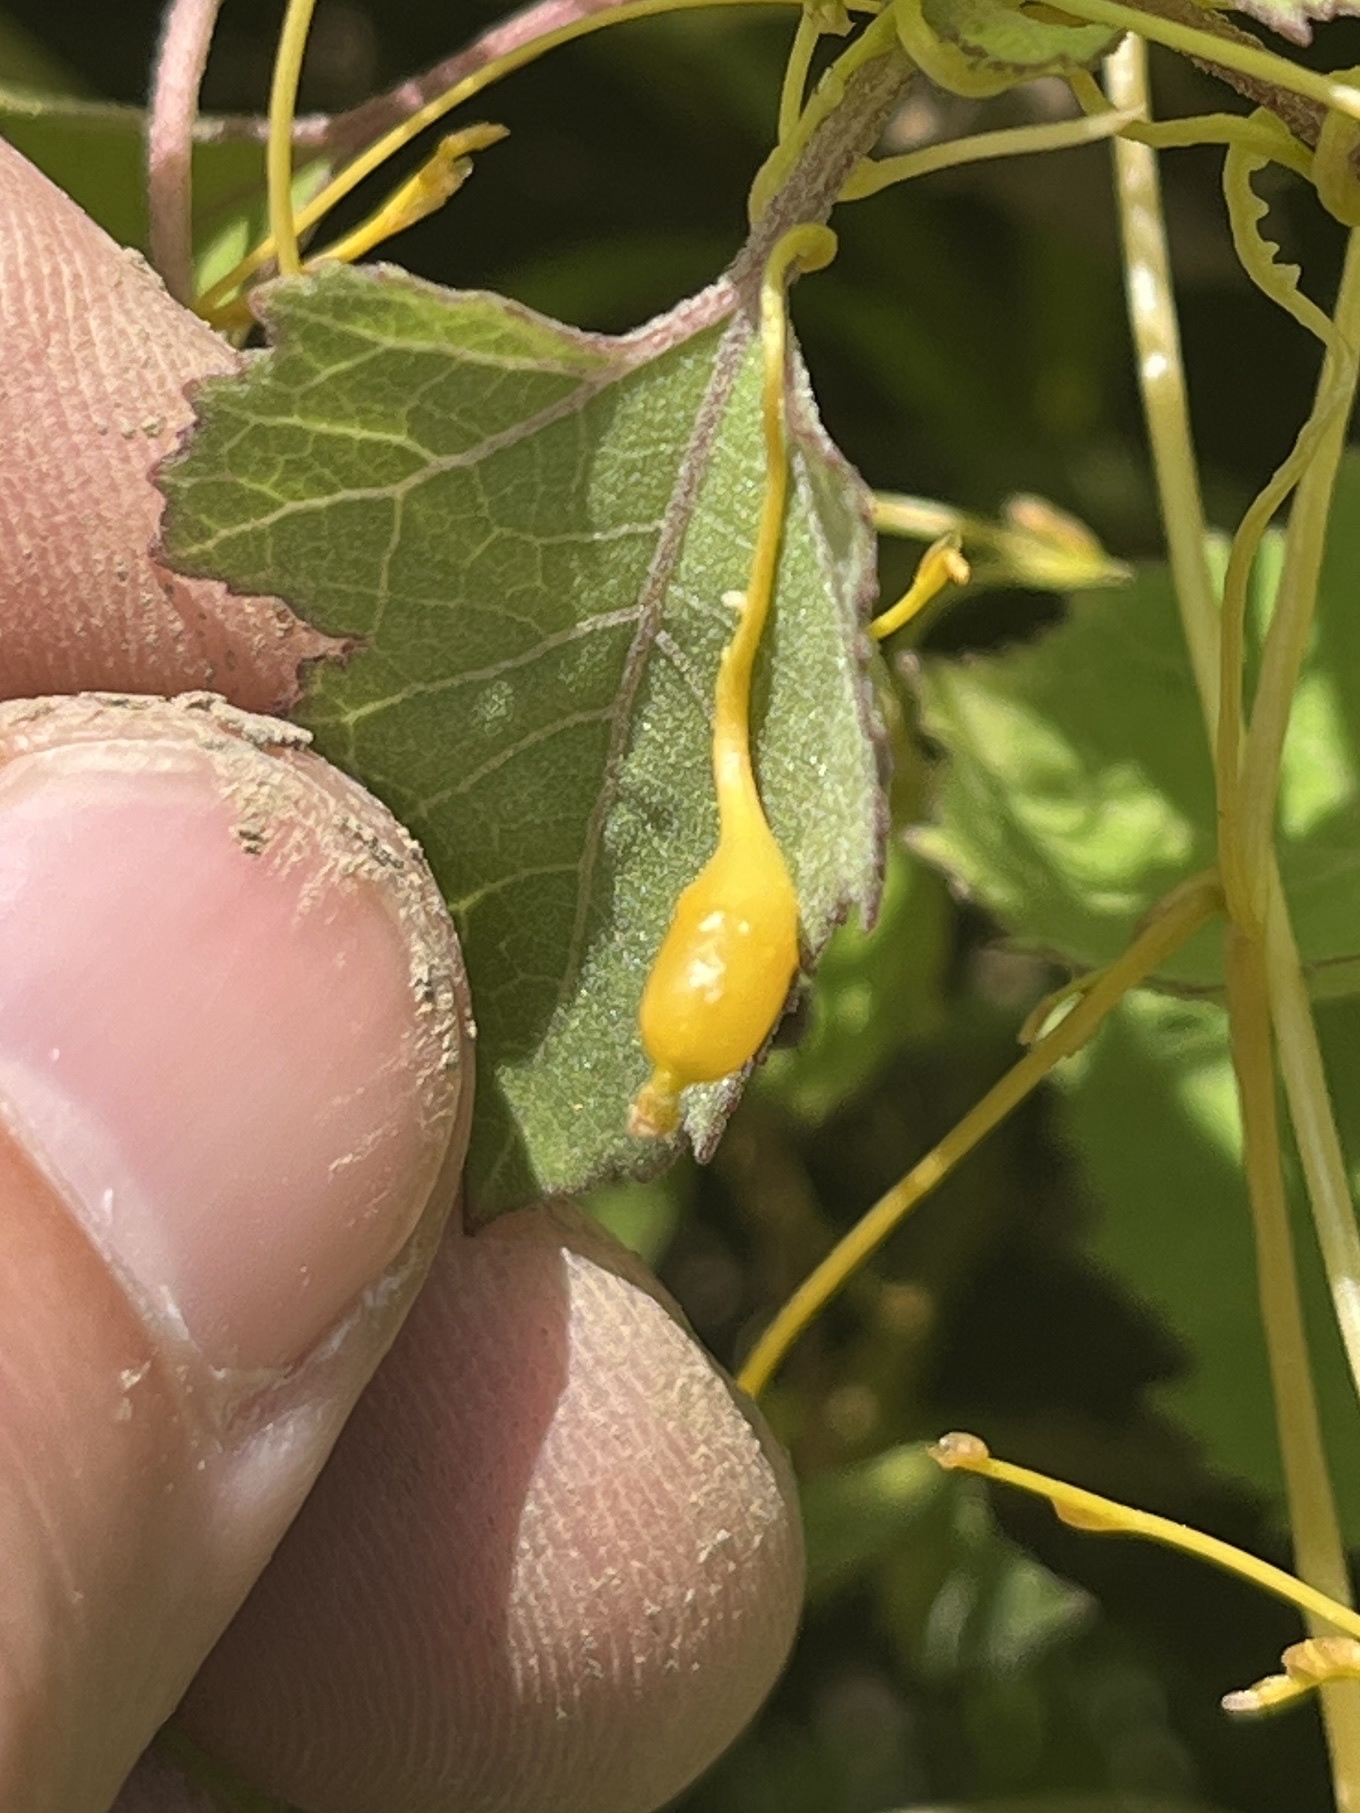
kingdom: Animalia
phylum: Arthropoda
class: Insecta
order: Coleoptera
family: Curculionidae
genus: Smicronyx
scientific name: Smicronyx sculpticollis
